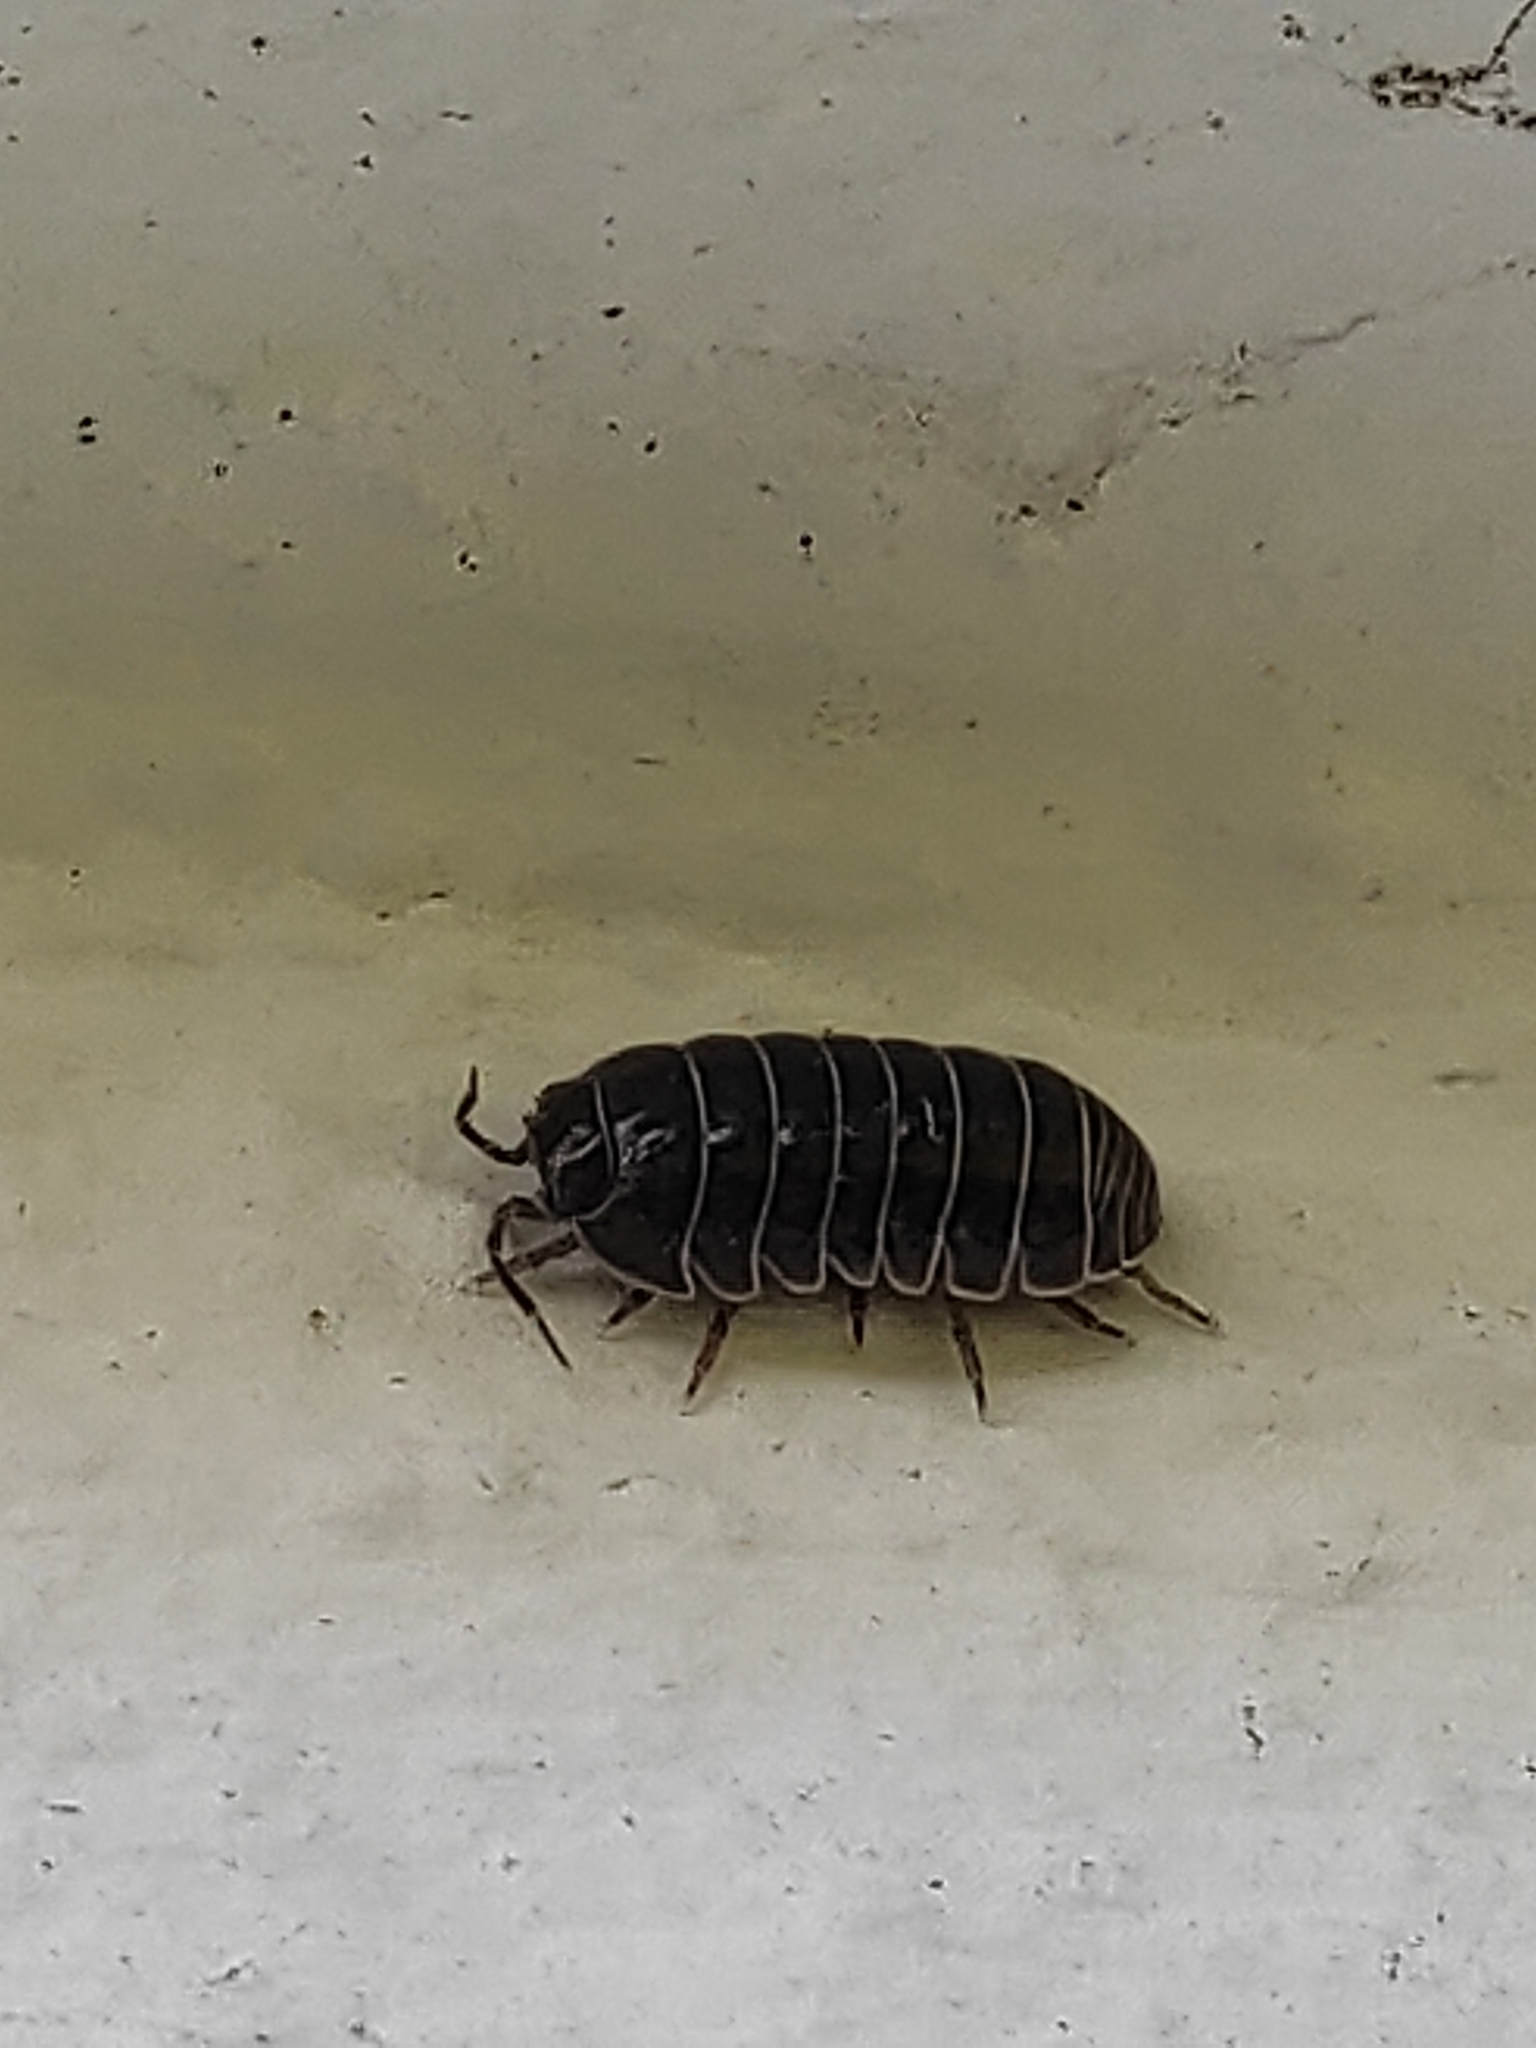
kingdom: Animalia
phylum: Arthropoda
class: Malacostraca
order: Isopoda
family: Armadillidiidae
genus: Armadillidium
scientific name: Armadillidium vulgare
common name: Common pill woodlouse
